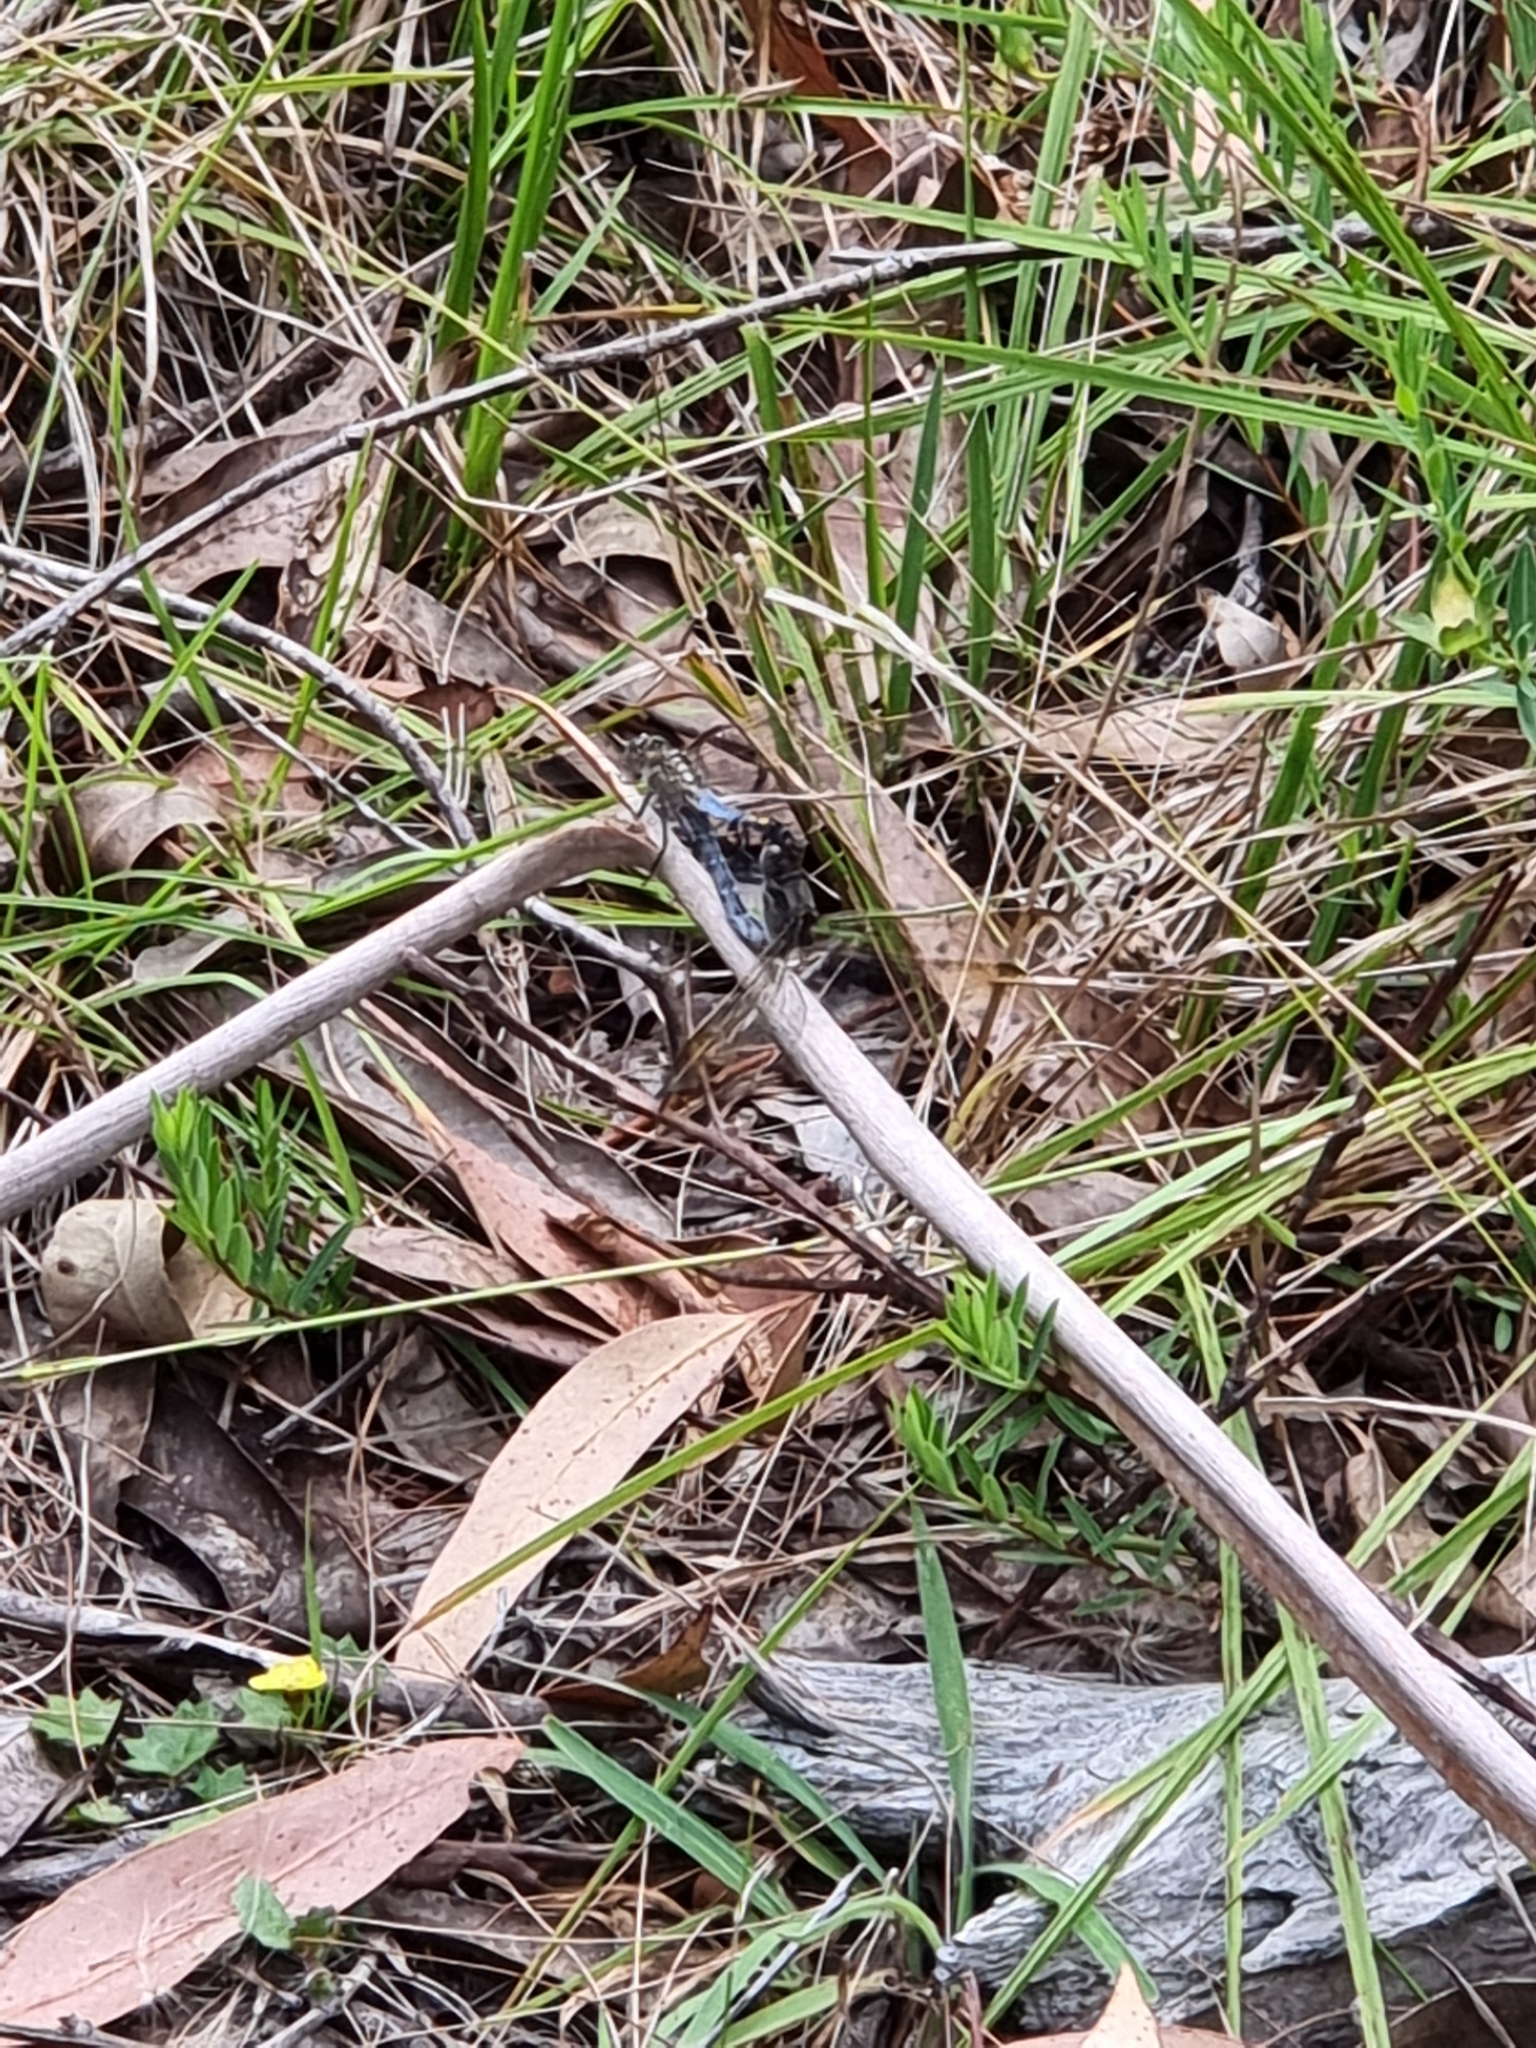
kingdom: Animalia
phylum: Arthropoda
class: Insecta
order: Odonata
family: Libellulidae
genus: Orthetrum
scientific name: Orthetrum caledonicum
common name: Blue skimmer
